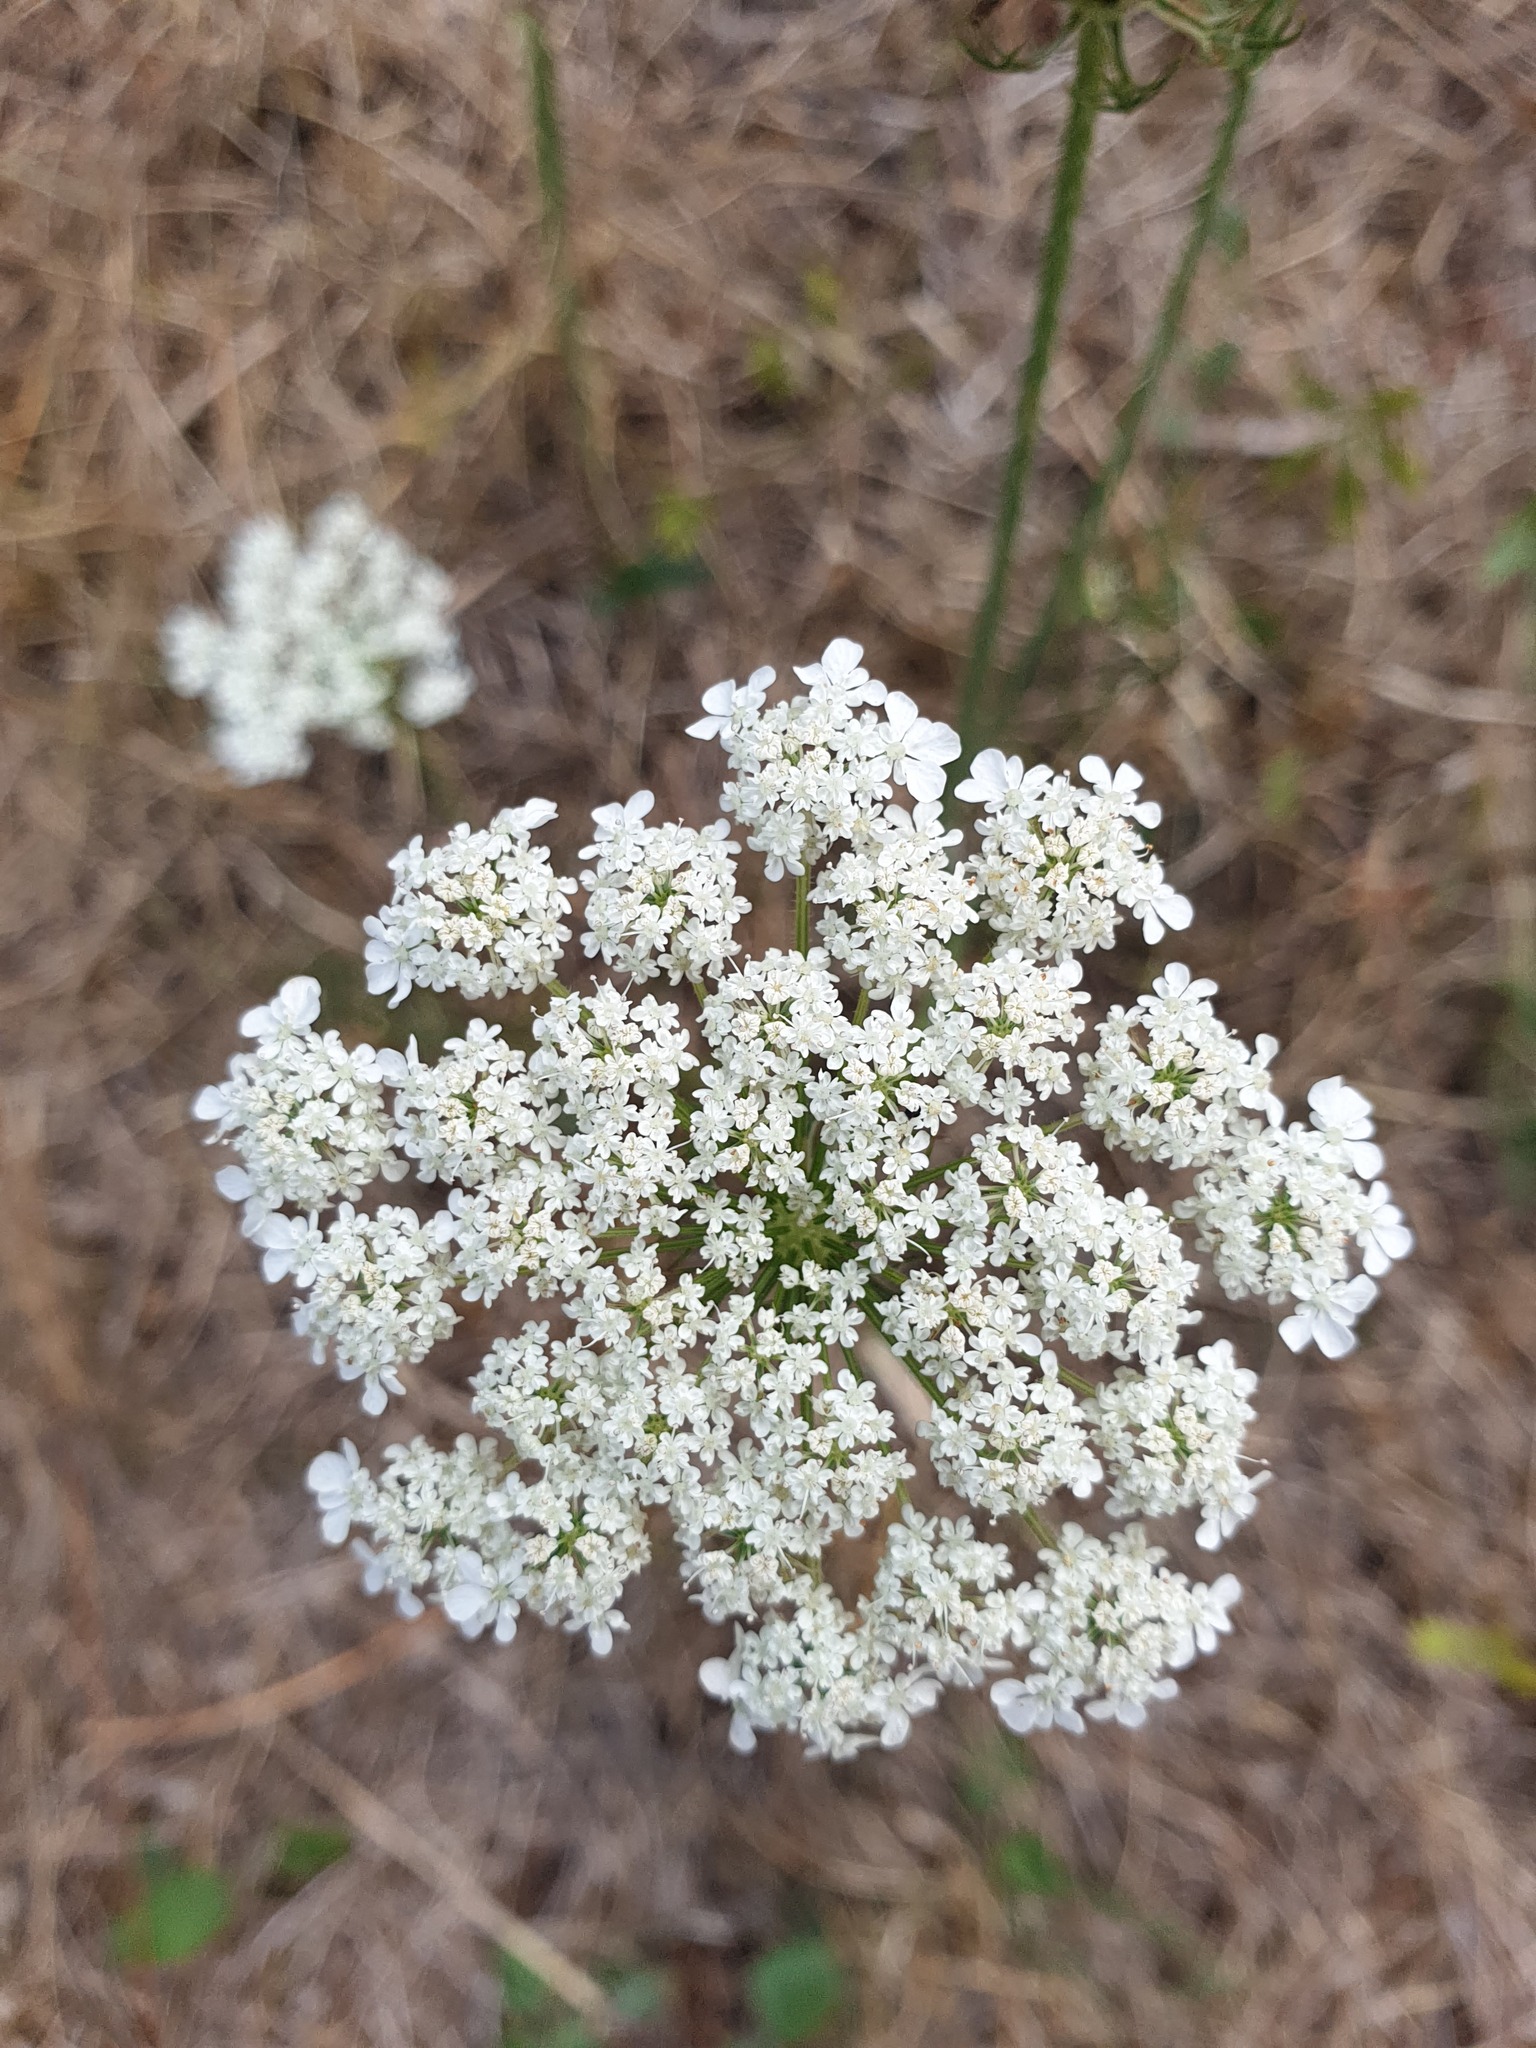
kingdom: Plantae
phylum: Tracheophyta
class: Magnoliopsida
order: Apiales
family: Apiaceae
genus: Daucus
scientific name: Daucus carota
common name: Wild carrot
